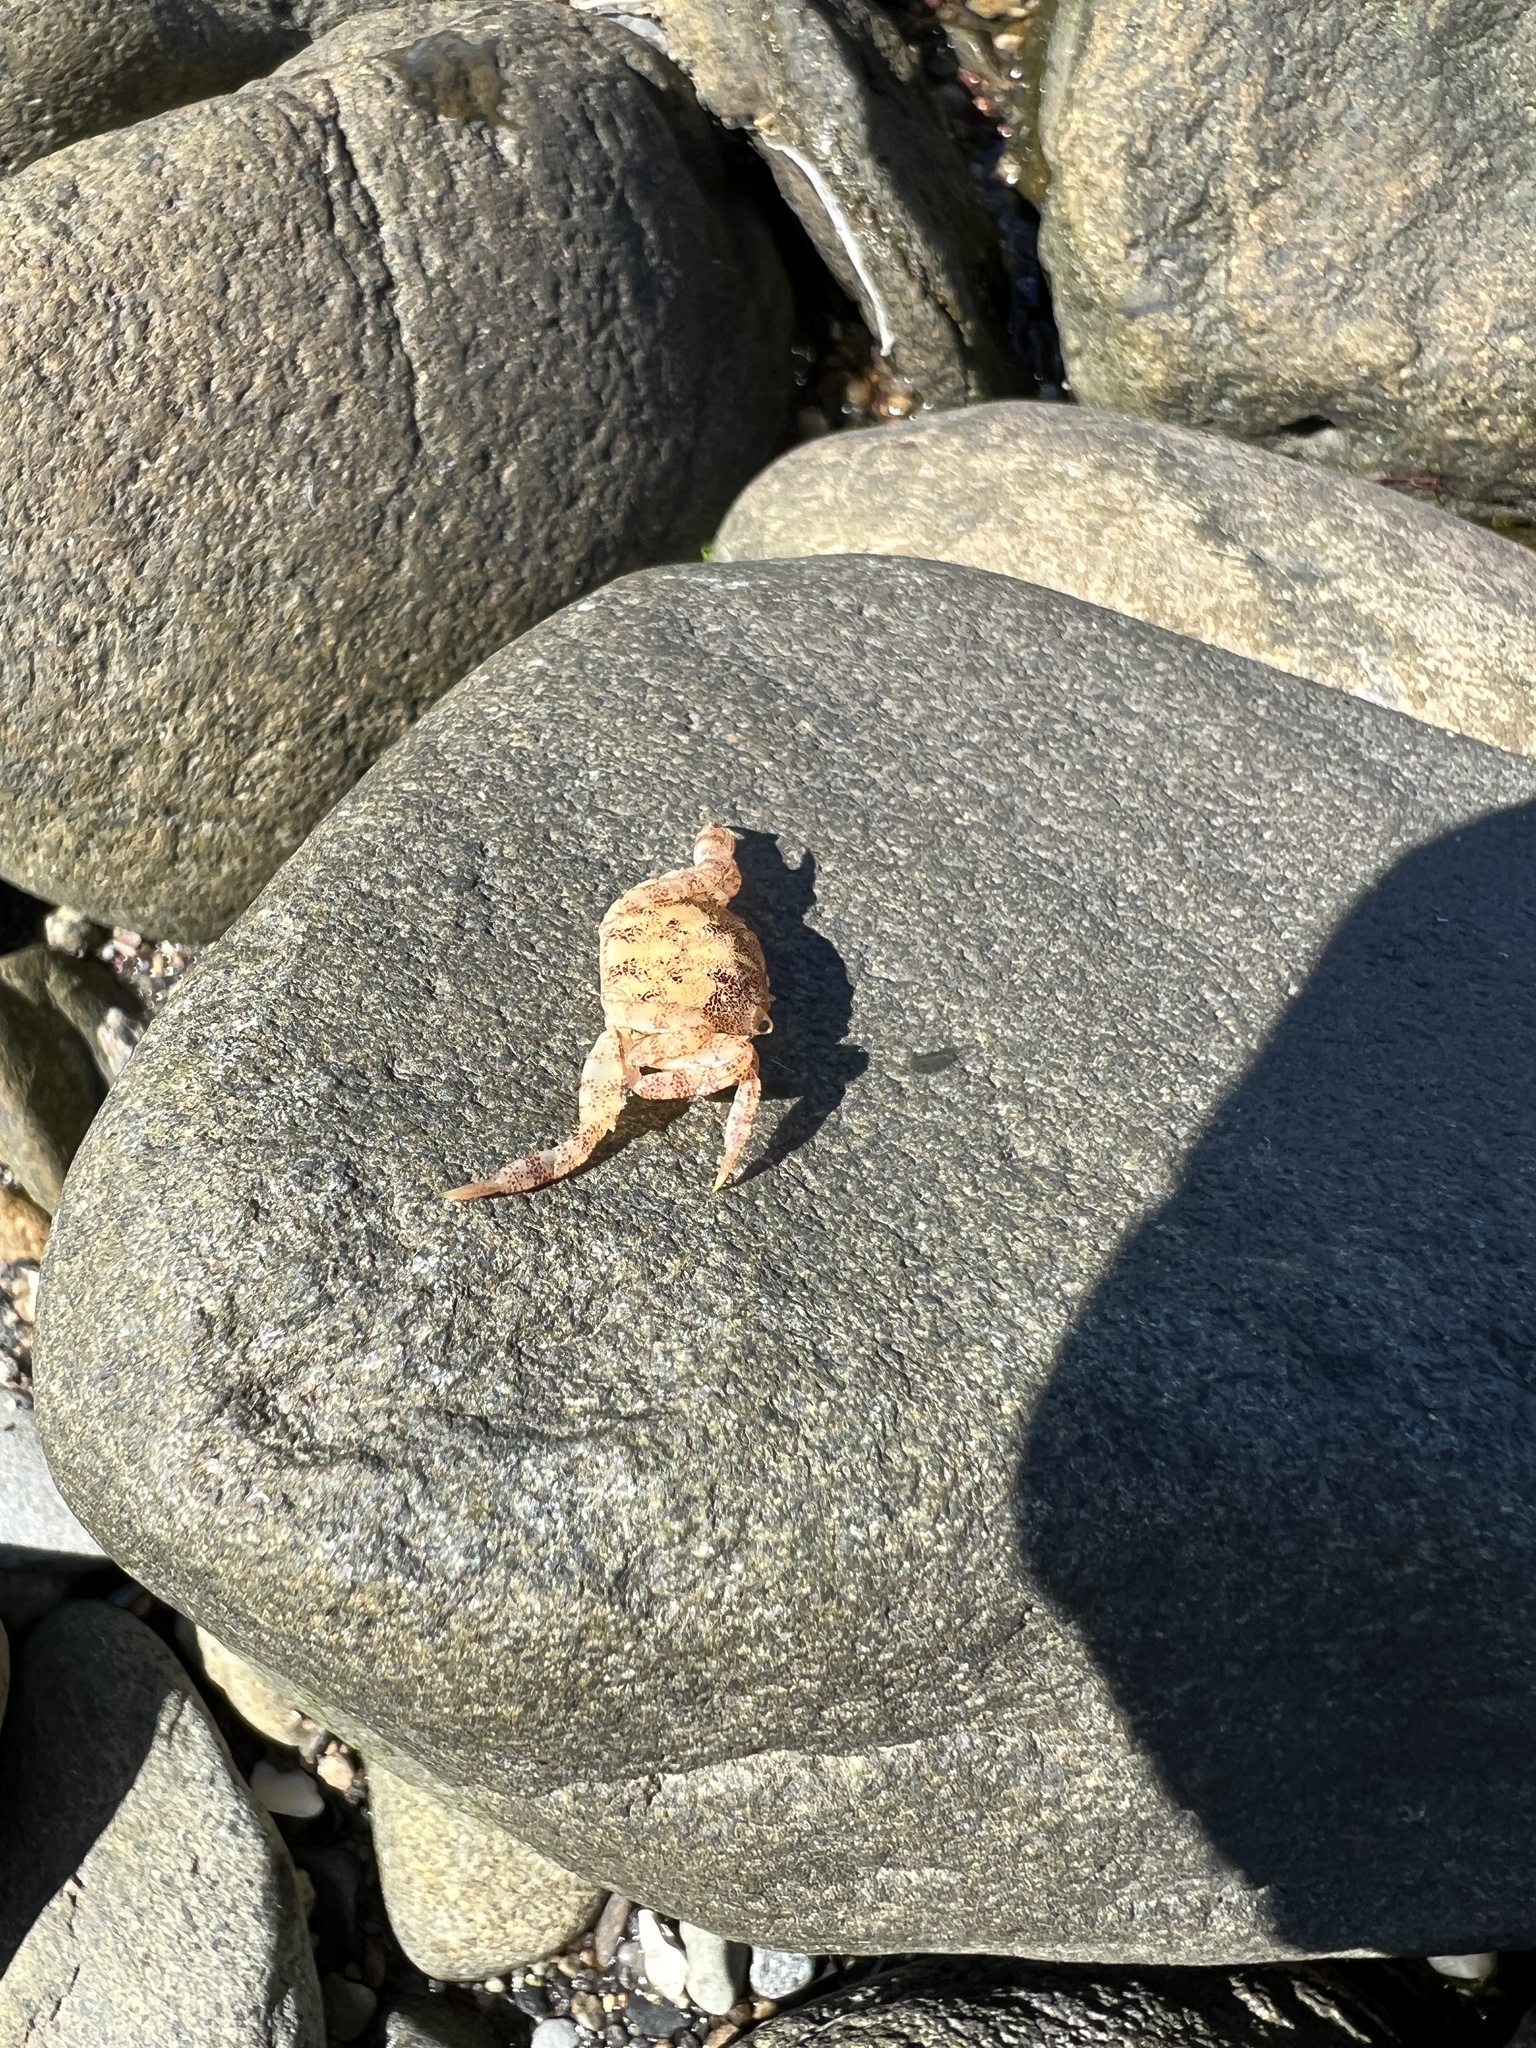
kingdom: Animalia
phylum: Arthropoda
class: Malacostraca
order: Decapoda
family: Varunidae
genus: Hemigrapsus
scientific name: Hemigrapsus sanguineus
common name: Asian shore crab
